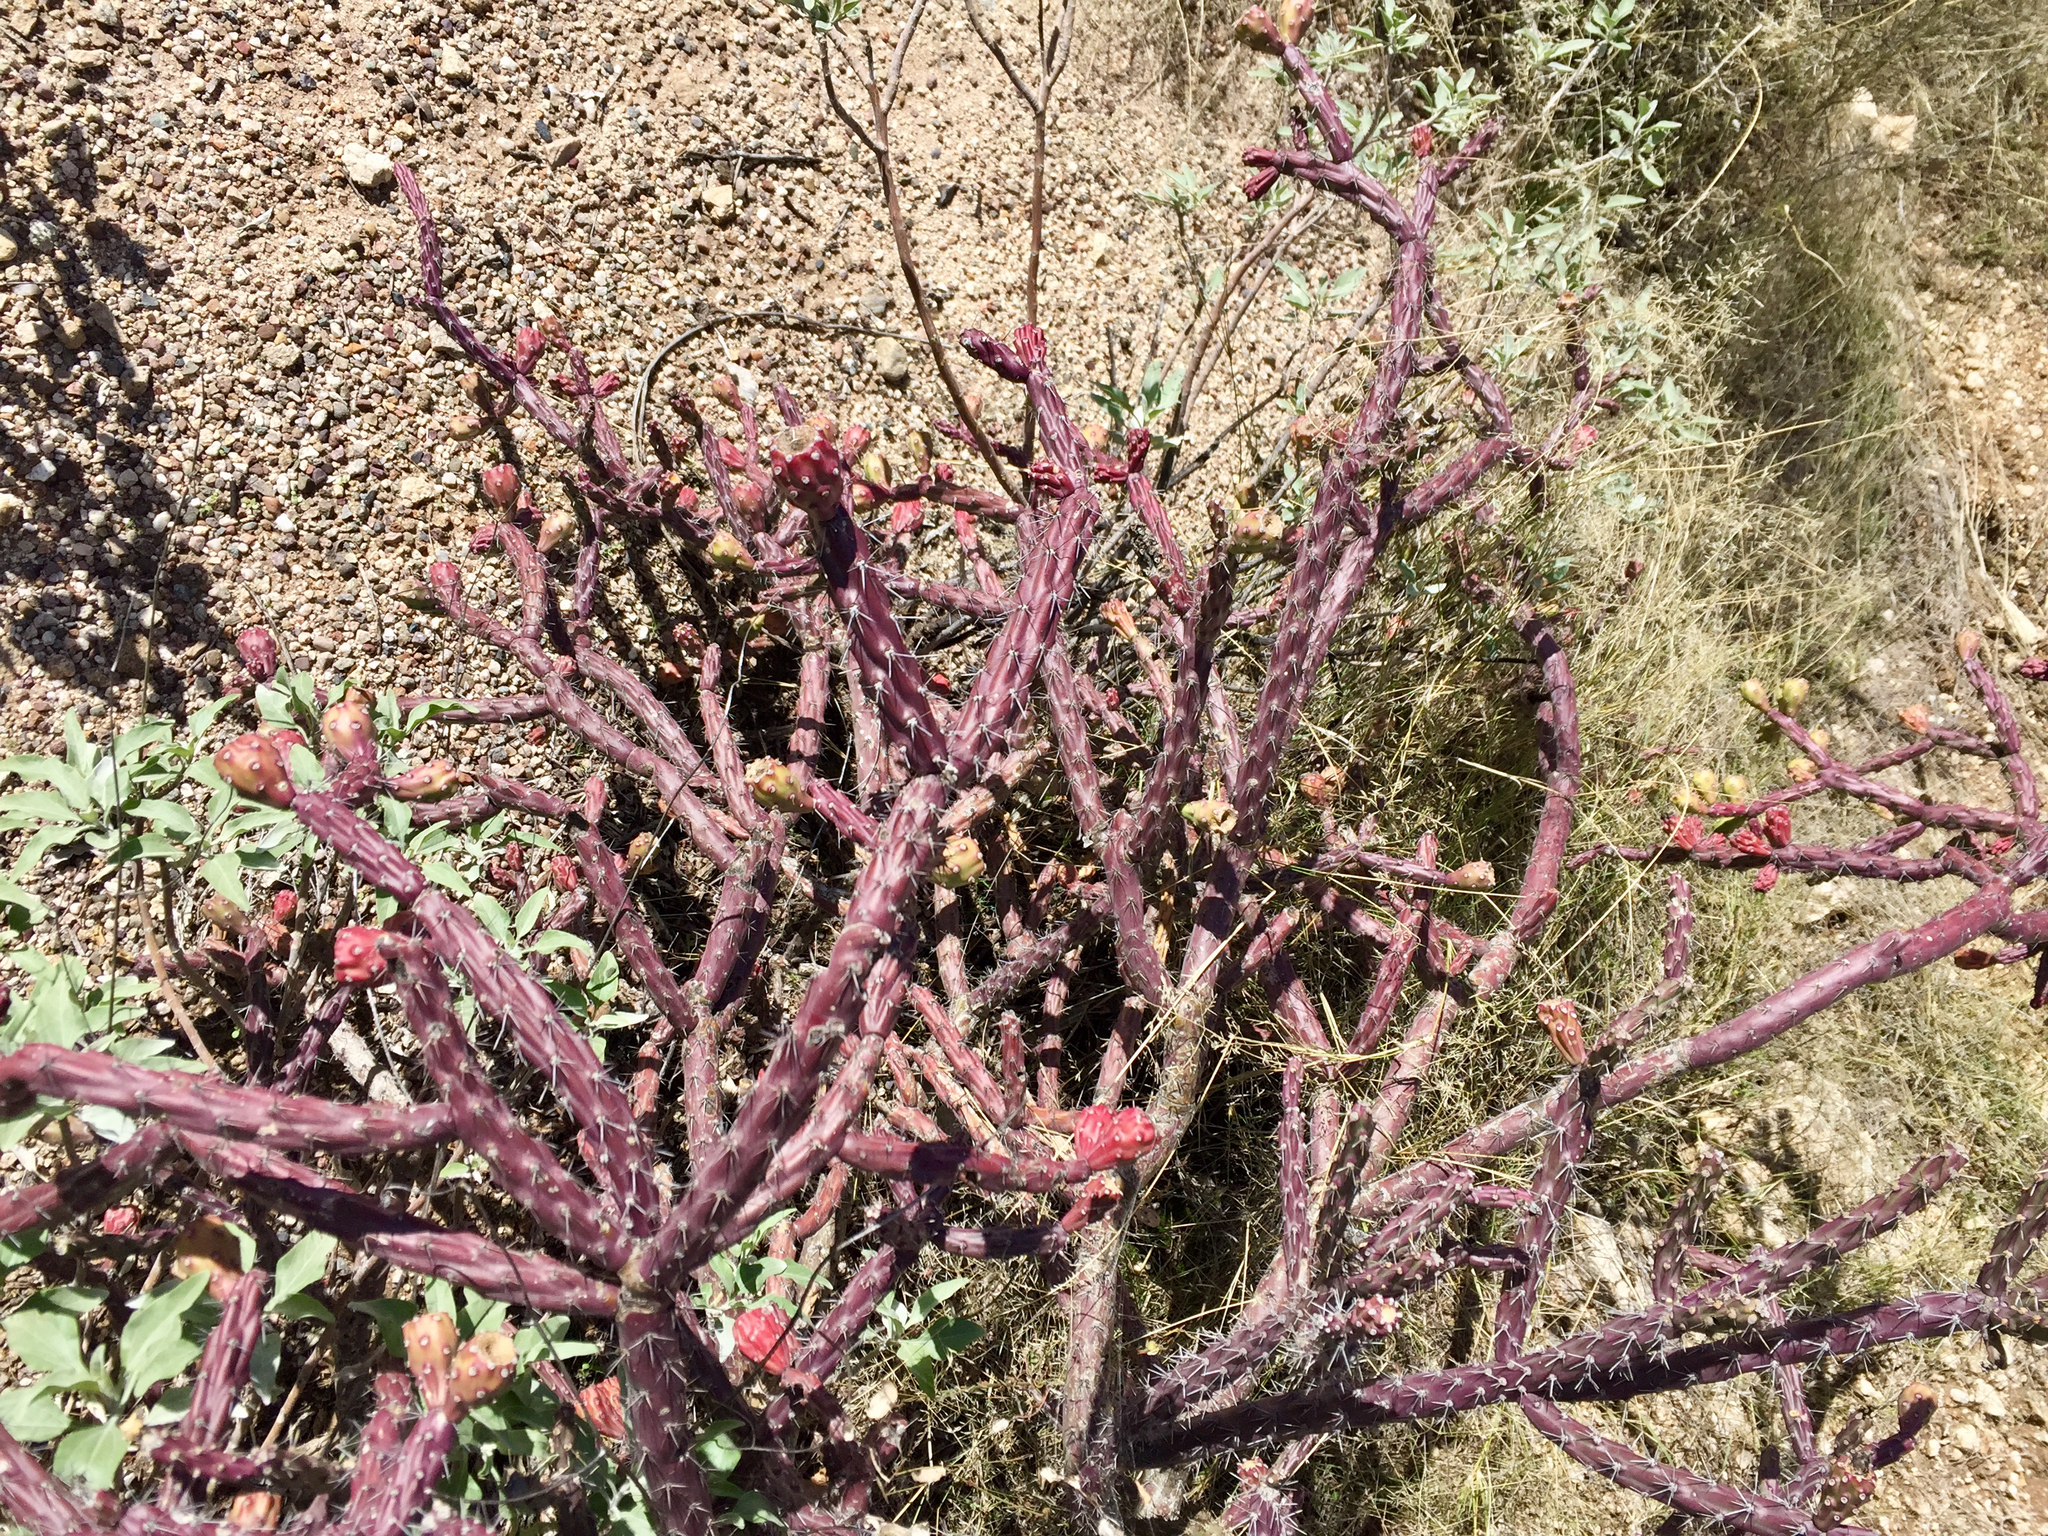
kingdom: Plantae
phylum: Tracheophyta
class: Magnoliopsida
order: Caryophyllales
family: Cactaceae
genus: Cylindropuntia
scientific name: Cylindropuntia thurberi
